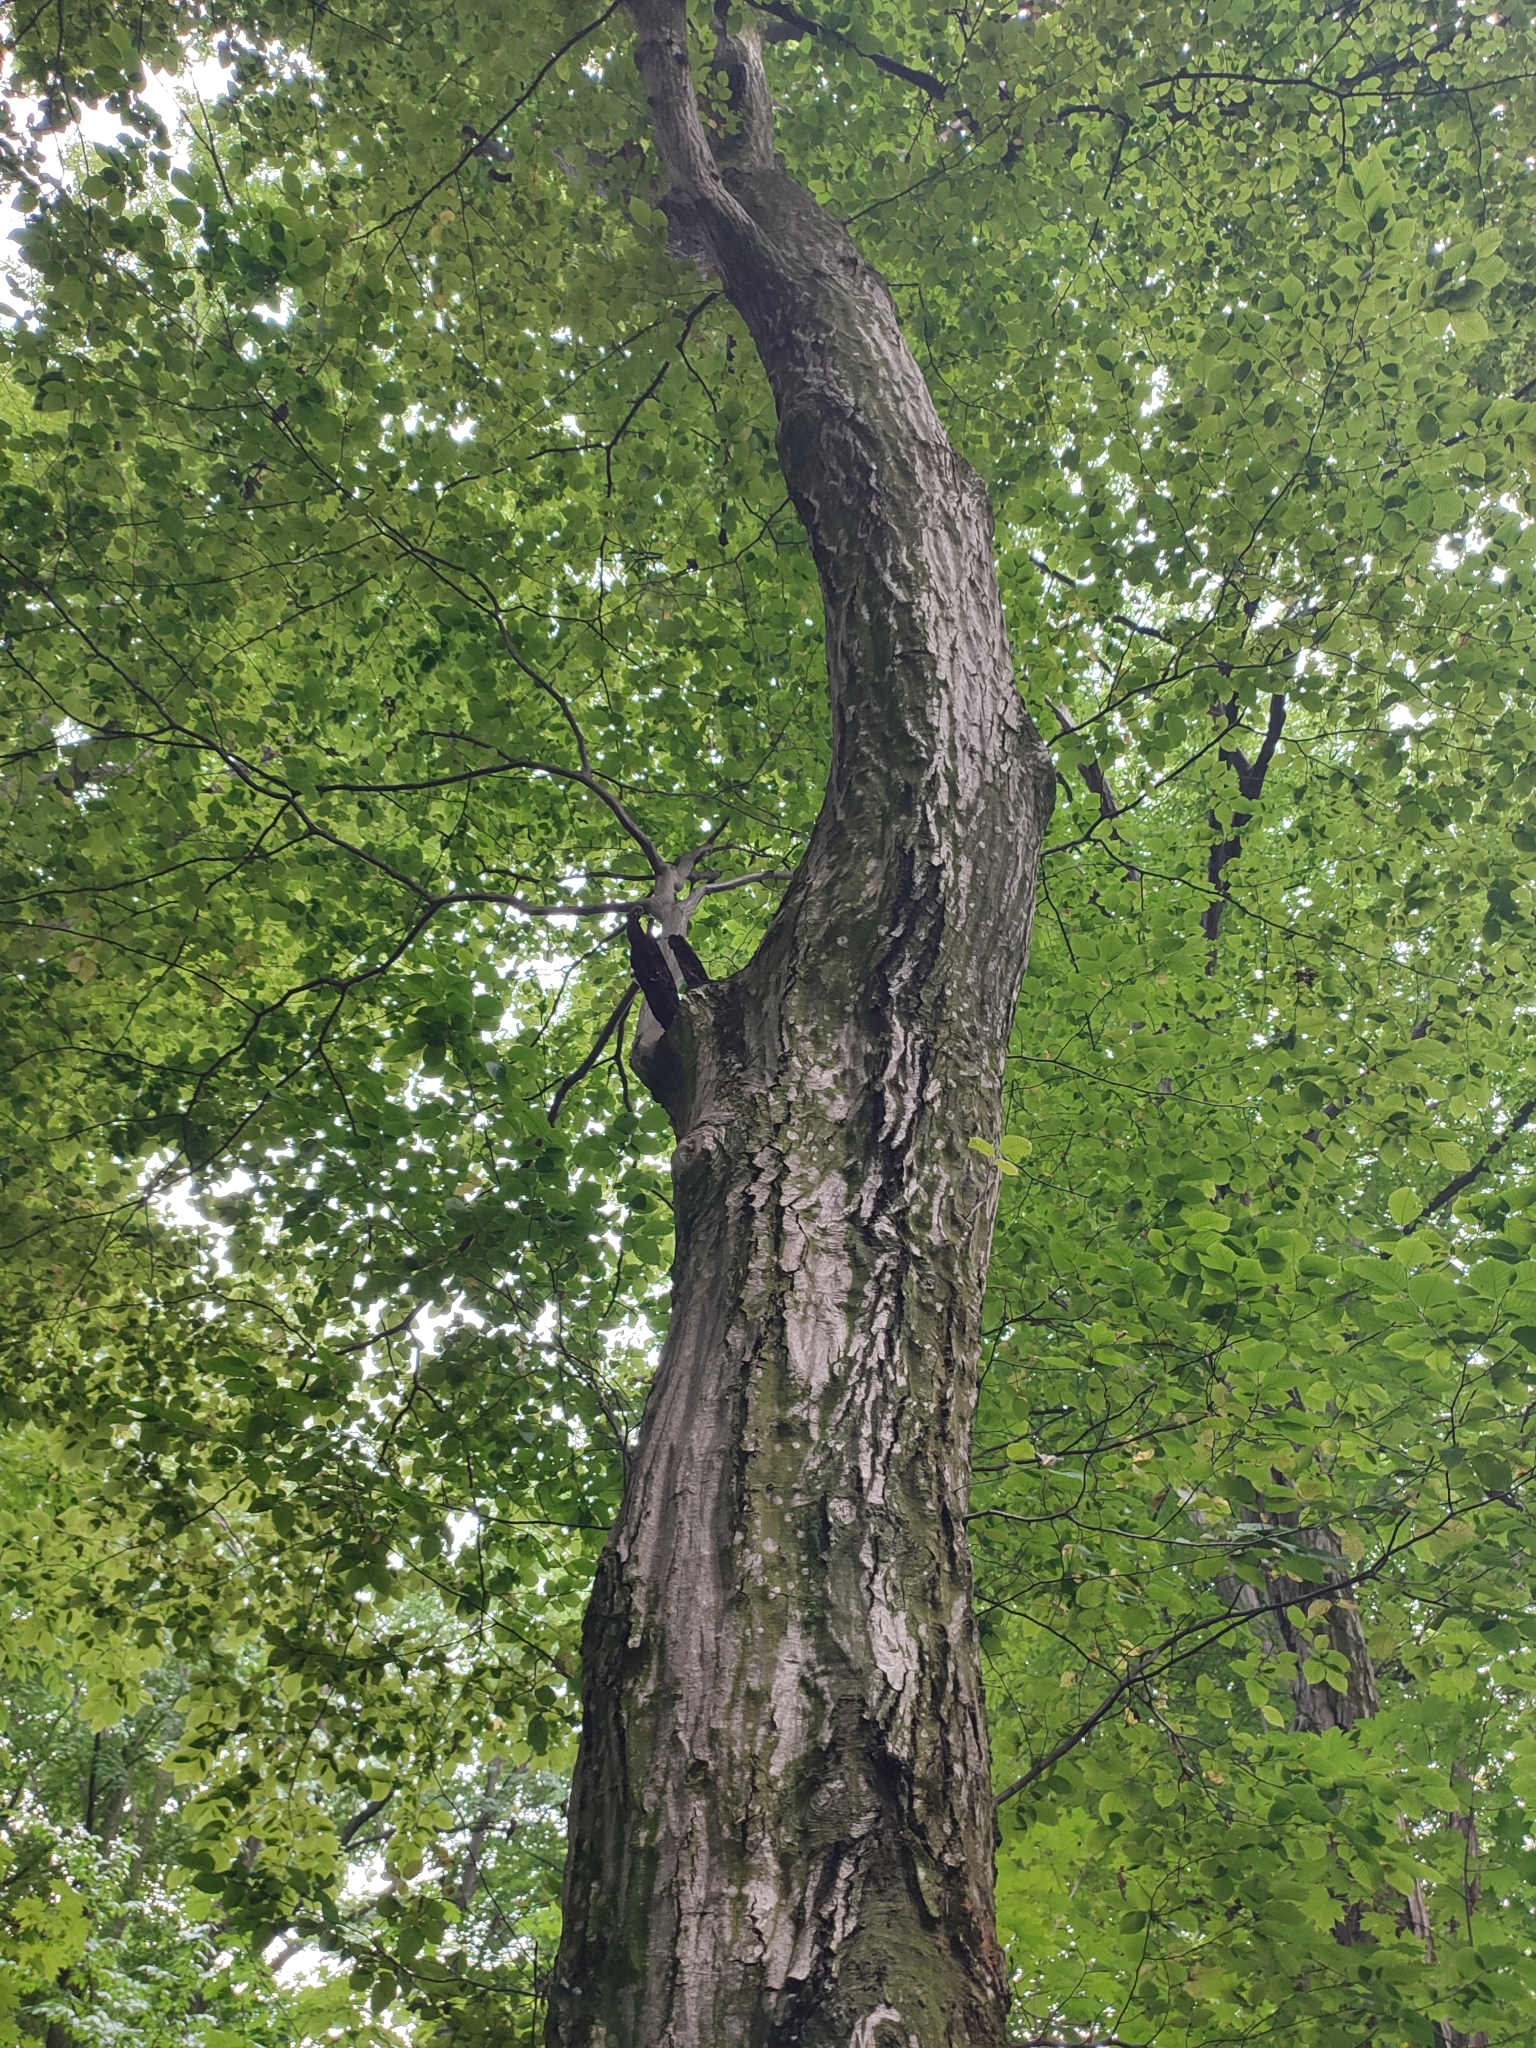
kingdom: Plantae
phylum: Tracheophyta
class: Magnoliopsida
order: Fagales
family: Betulaceae
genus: Carpinus
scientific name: Carpinus betulus
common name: Hornbeam
